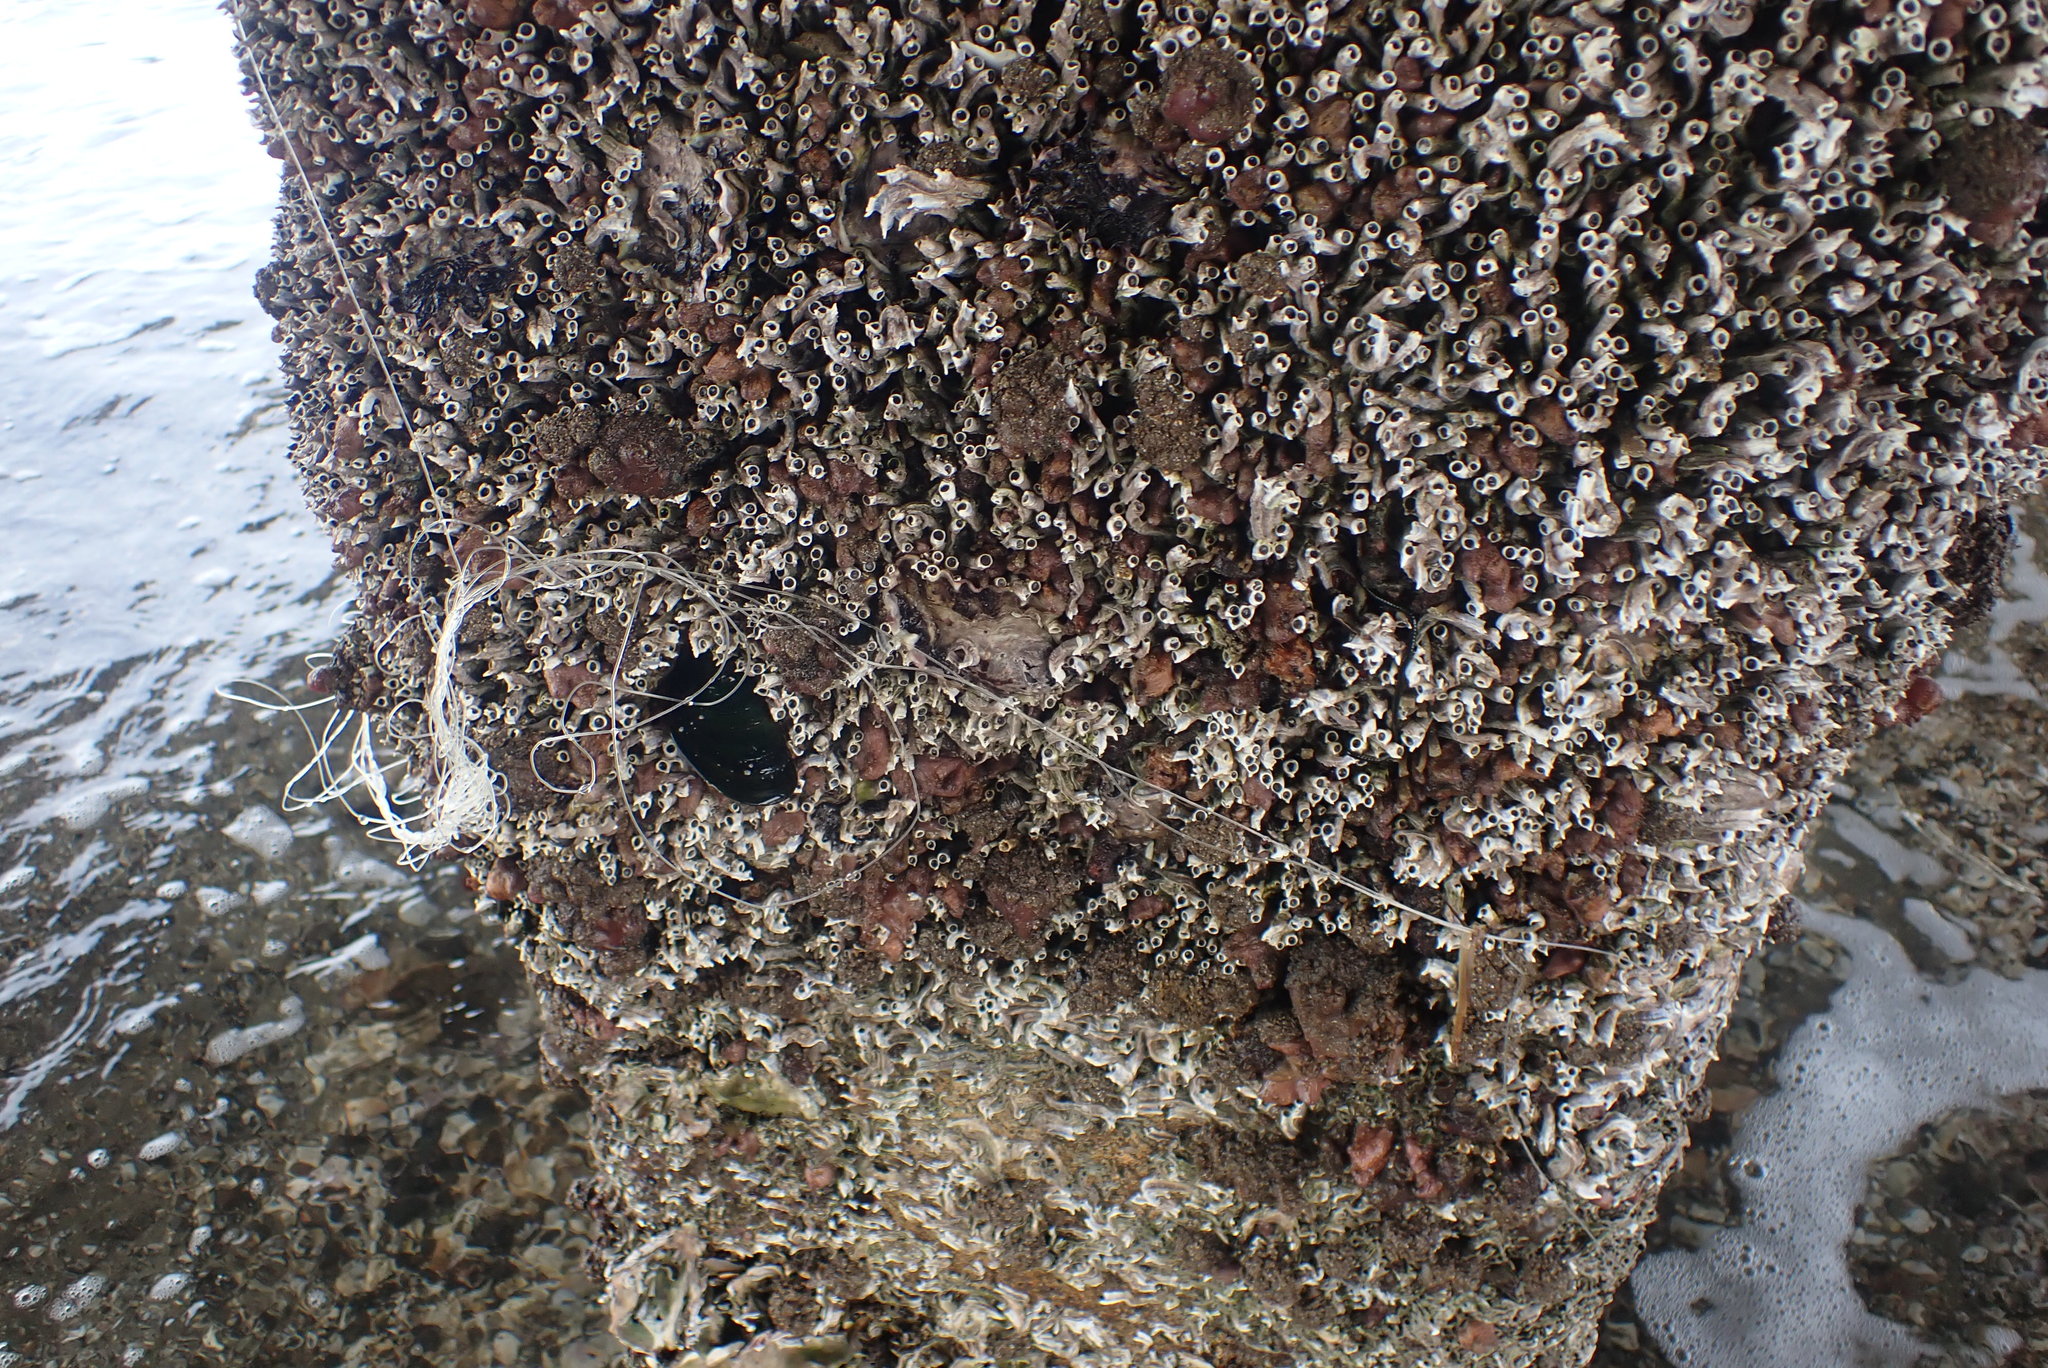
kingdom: Animalia
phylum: Annelida
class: Polychaeta
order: Sabellida
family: Serpulidae
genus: Spirobranchus
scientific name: Spirobranchus cariniferus
